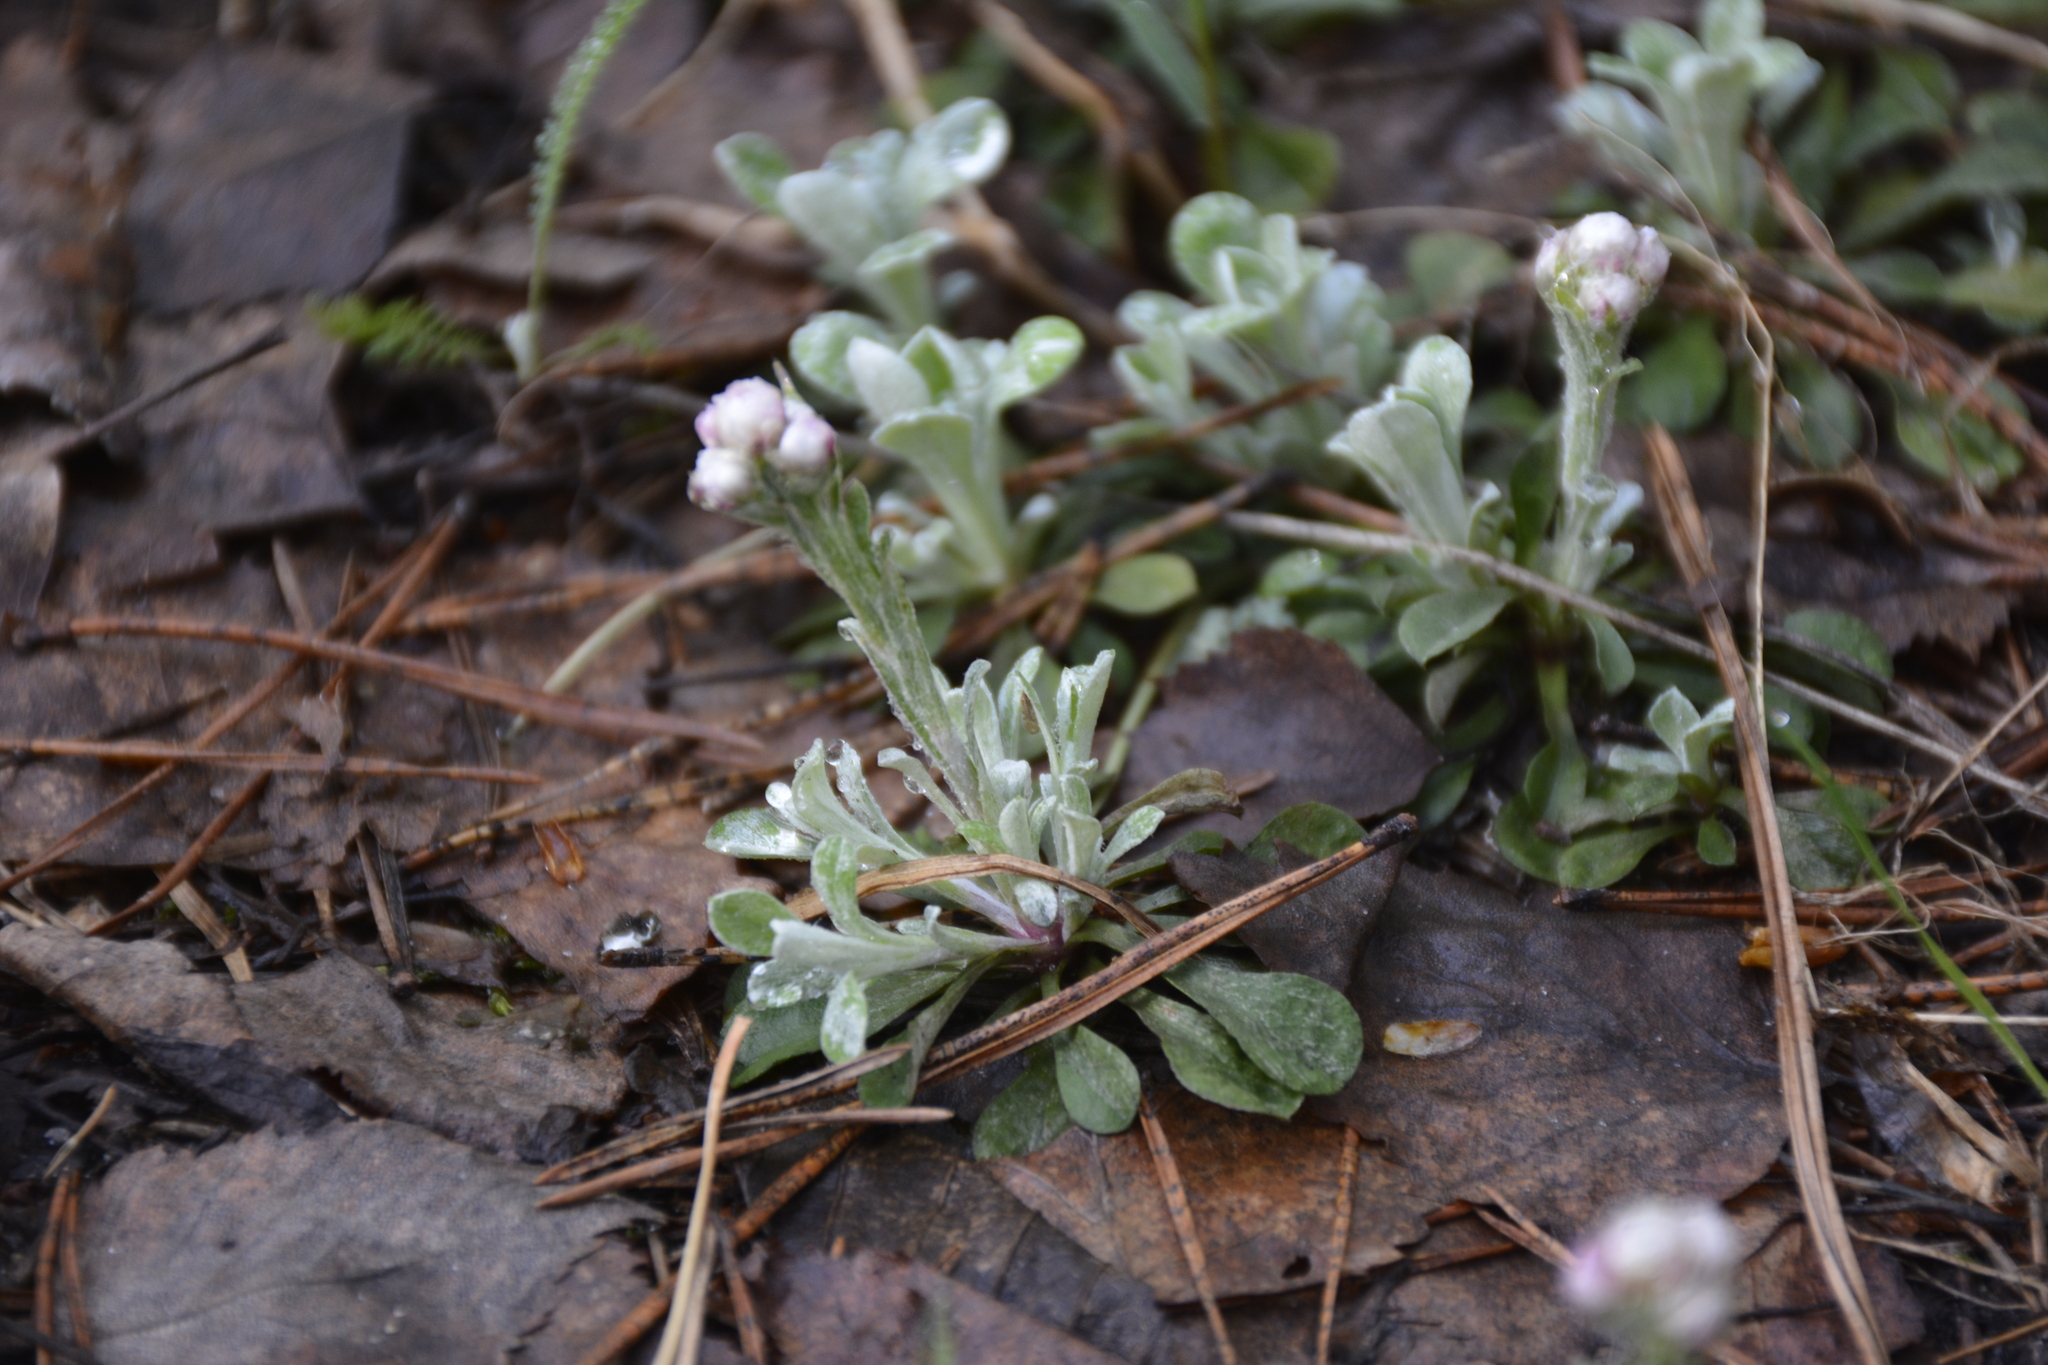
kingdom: Plantae
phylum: Tracheophyta
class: Magnoliopsida
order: Asterales
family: Asteraceae
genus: Antennaria
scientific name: Antennaria dioica
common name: Mountain everlasting
